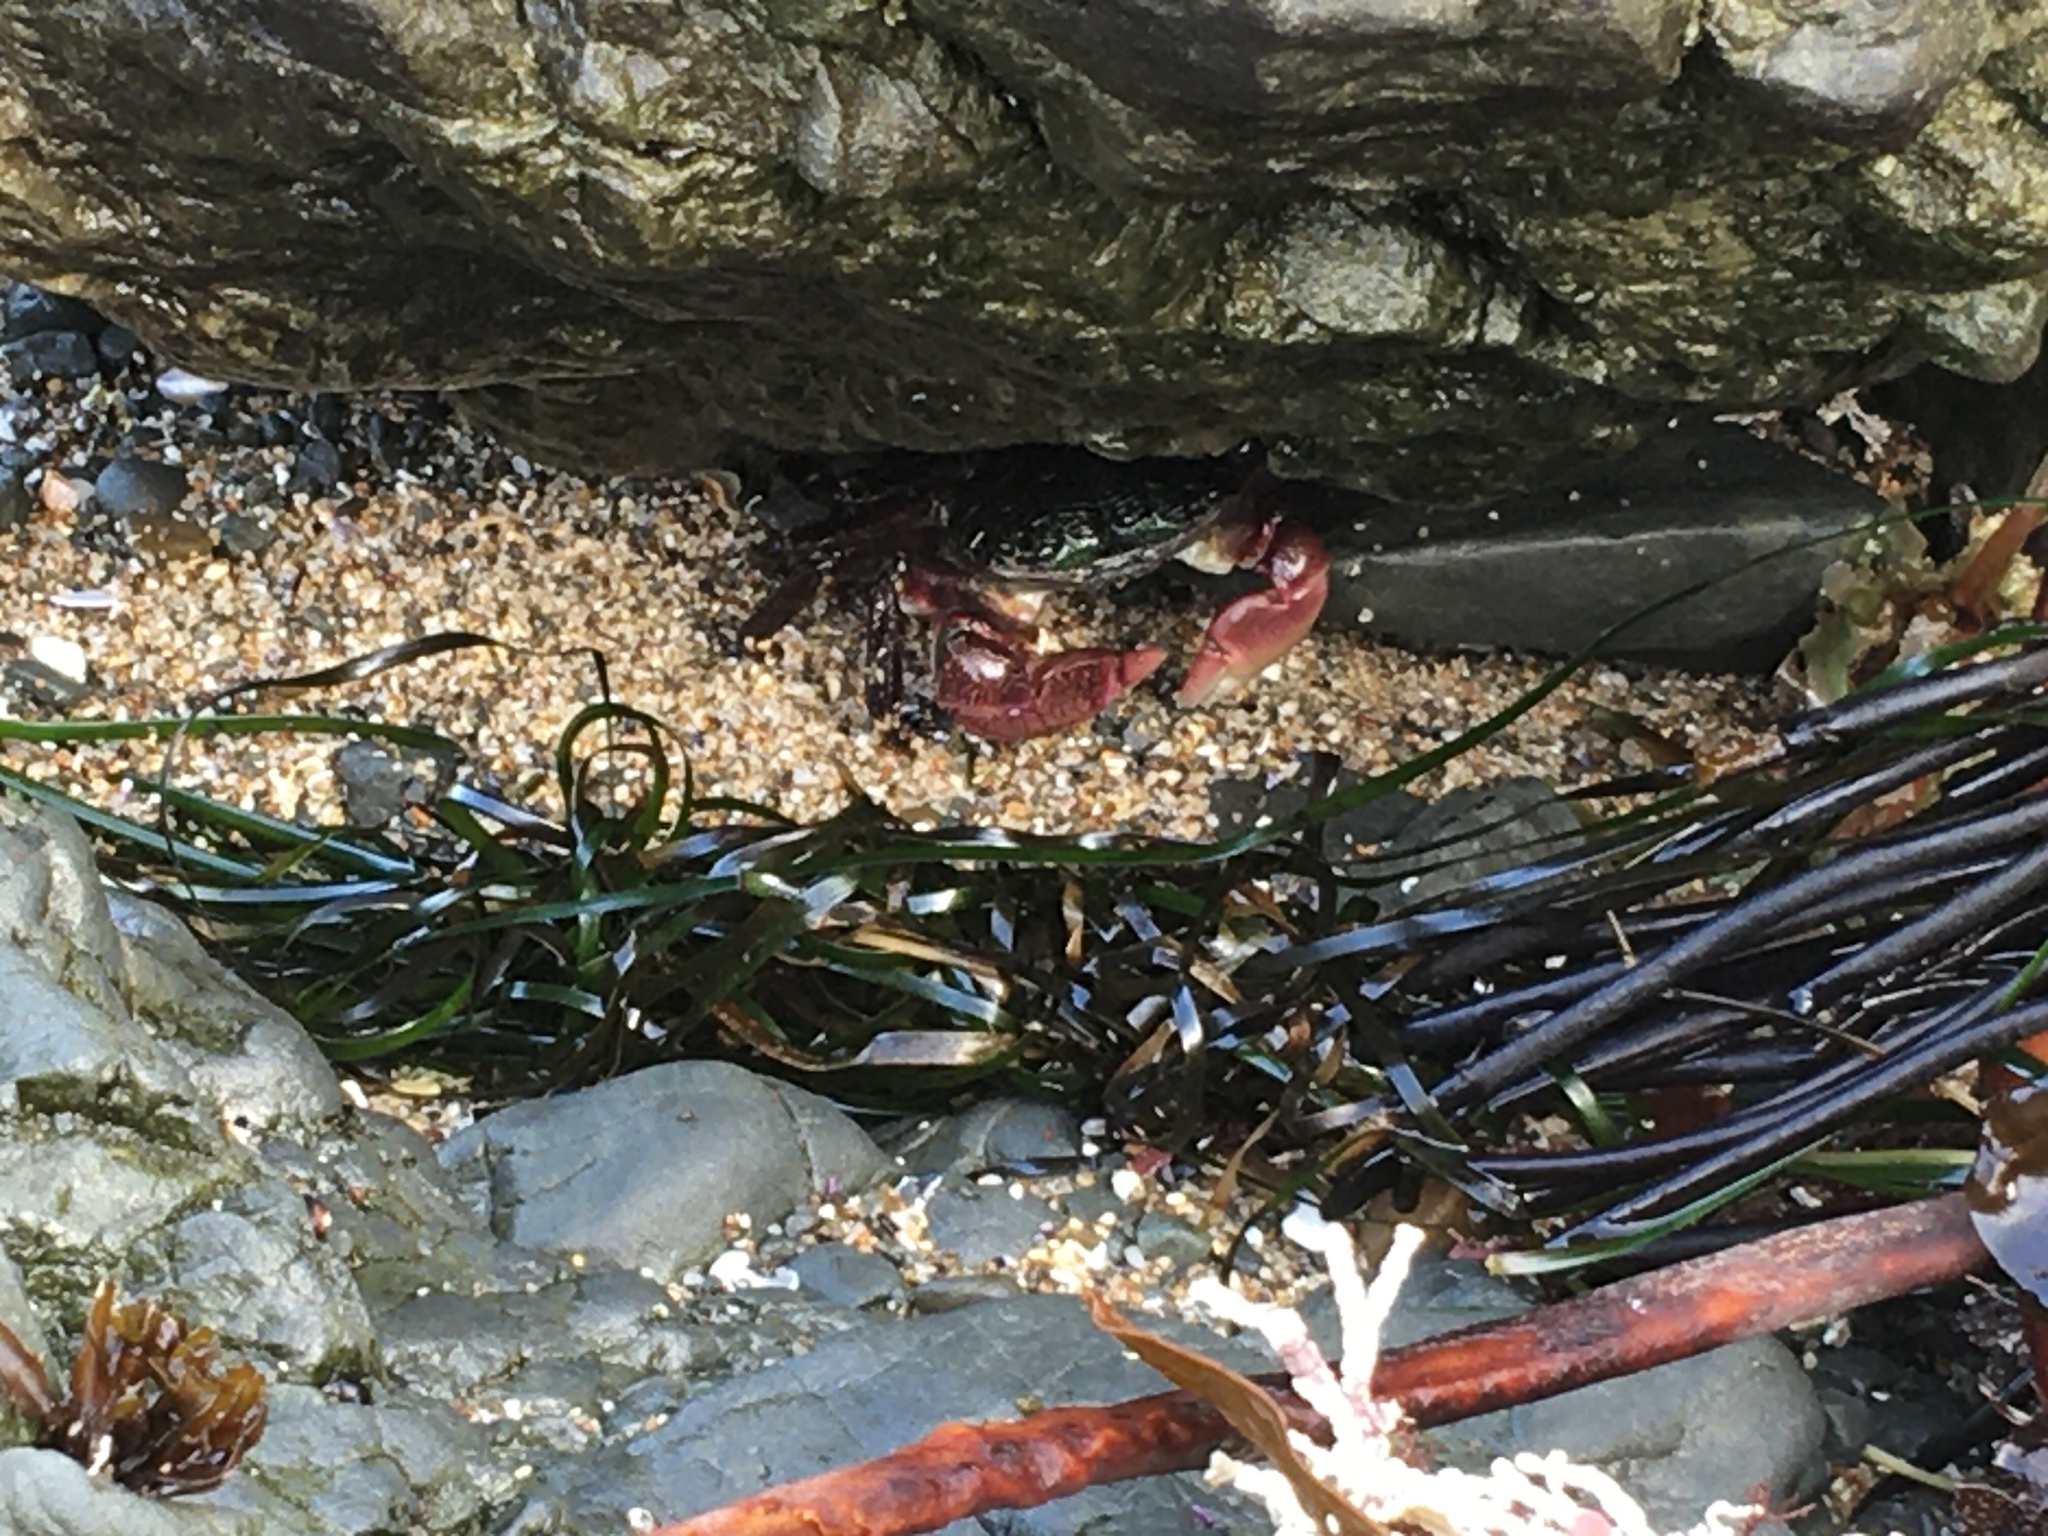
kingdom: Animalia
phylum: Arthropoda
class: Malacostraca
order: Decapoda
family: Grapsidae
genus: Pachygrapsus
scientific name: Pachygrapsus crassipes
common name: Striped shore crab
